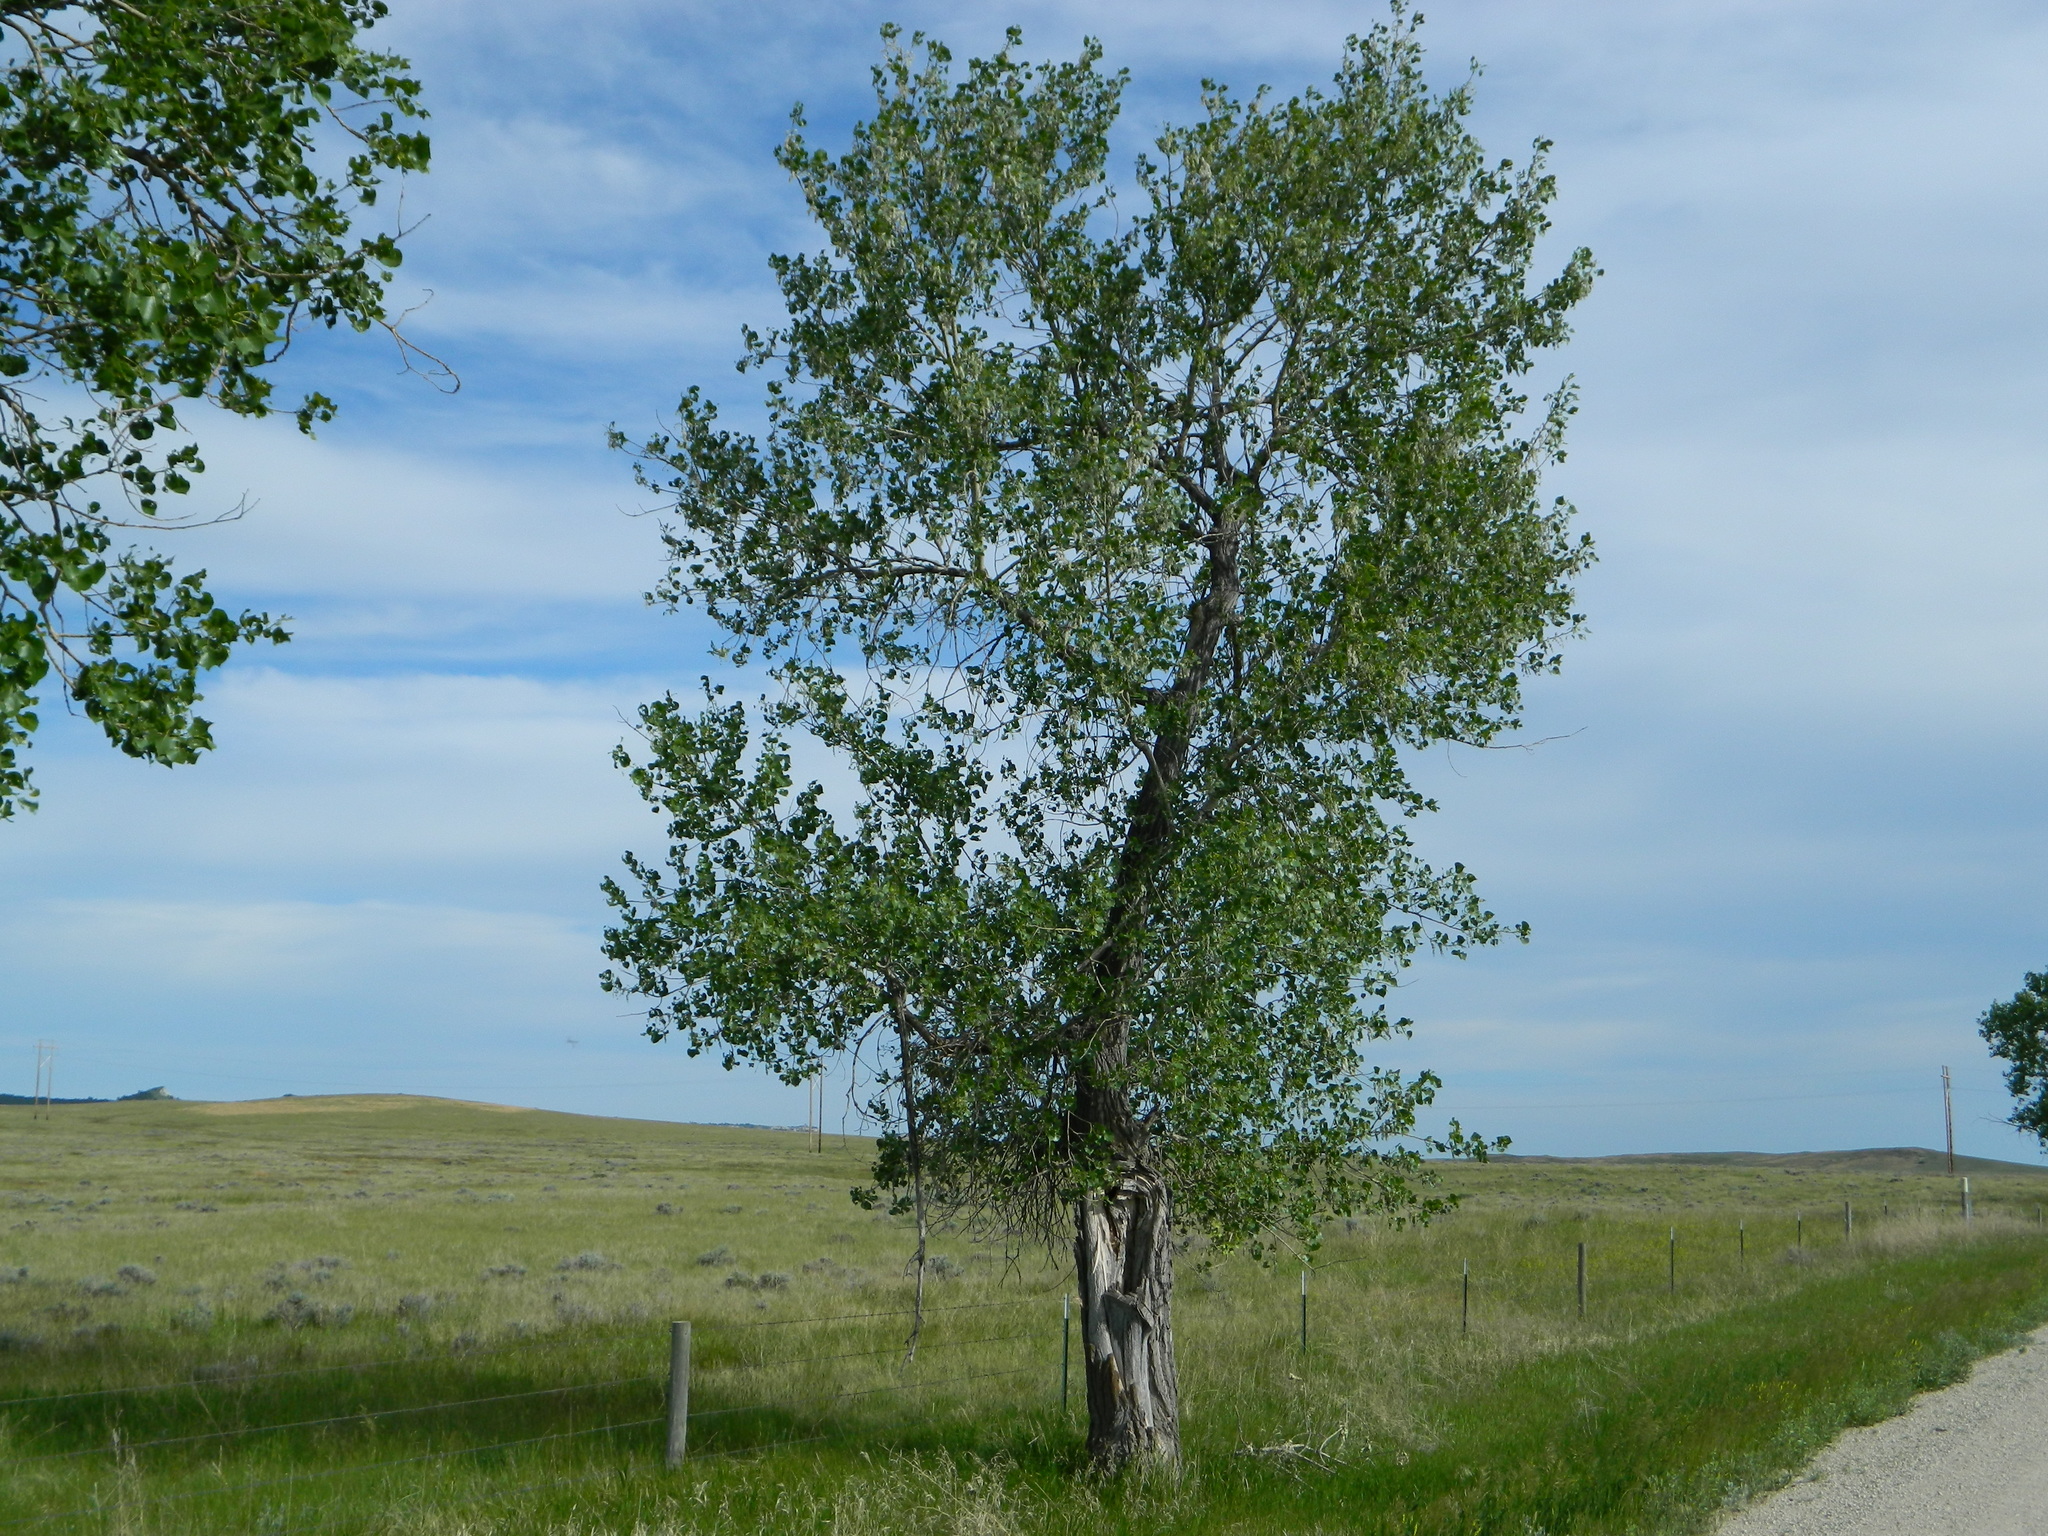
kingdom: Plantae
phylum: Tracheophyta
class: Magnoliopsida
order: Malpighiales
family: Salicaceae
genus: Populus
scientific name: Populus deltoides
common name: Eastern cottonwood
